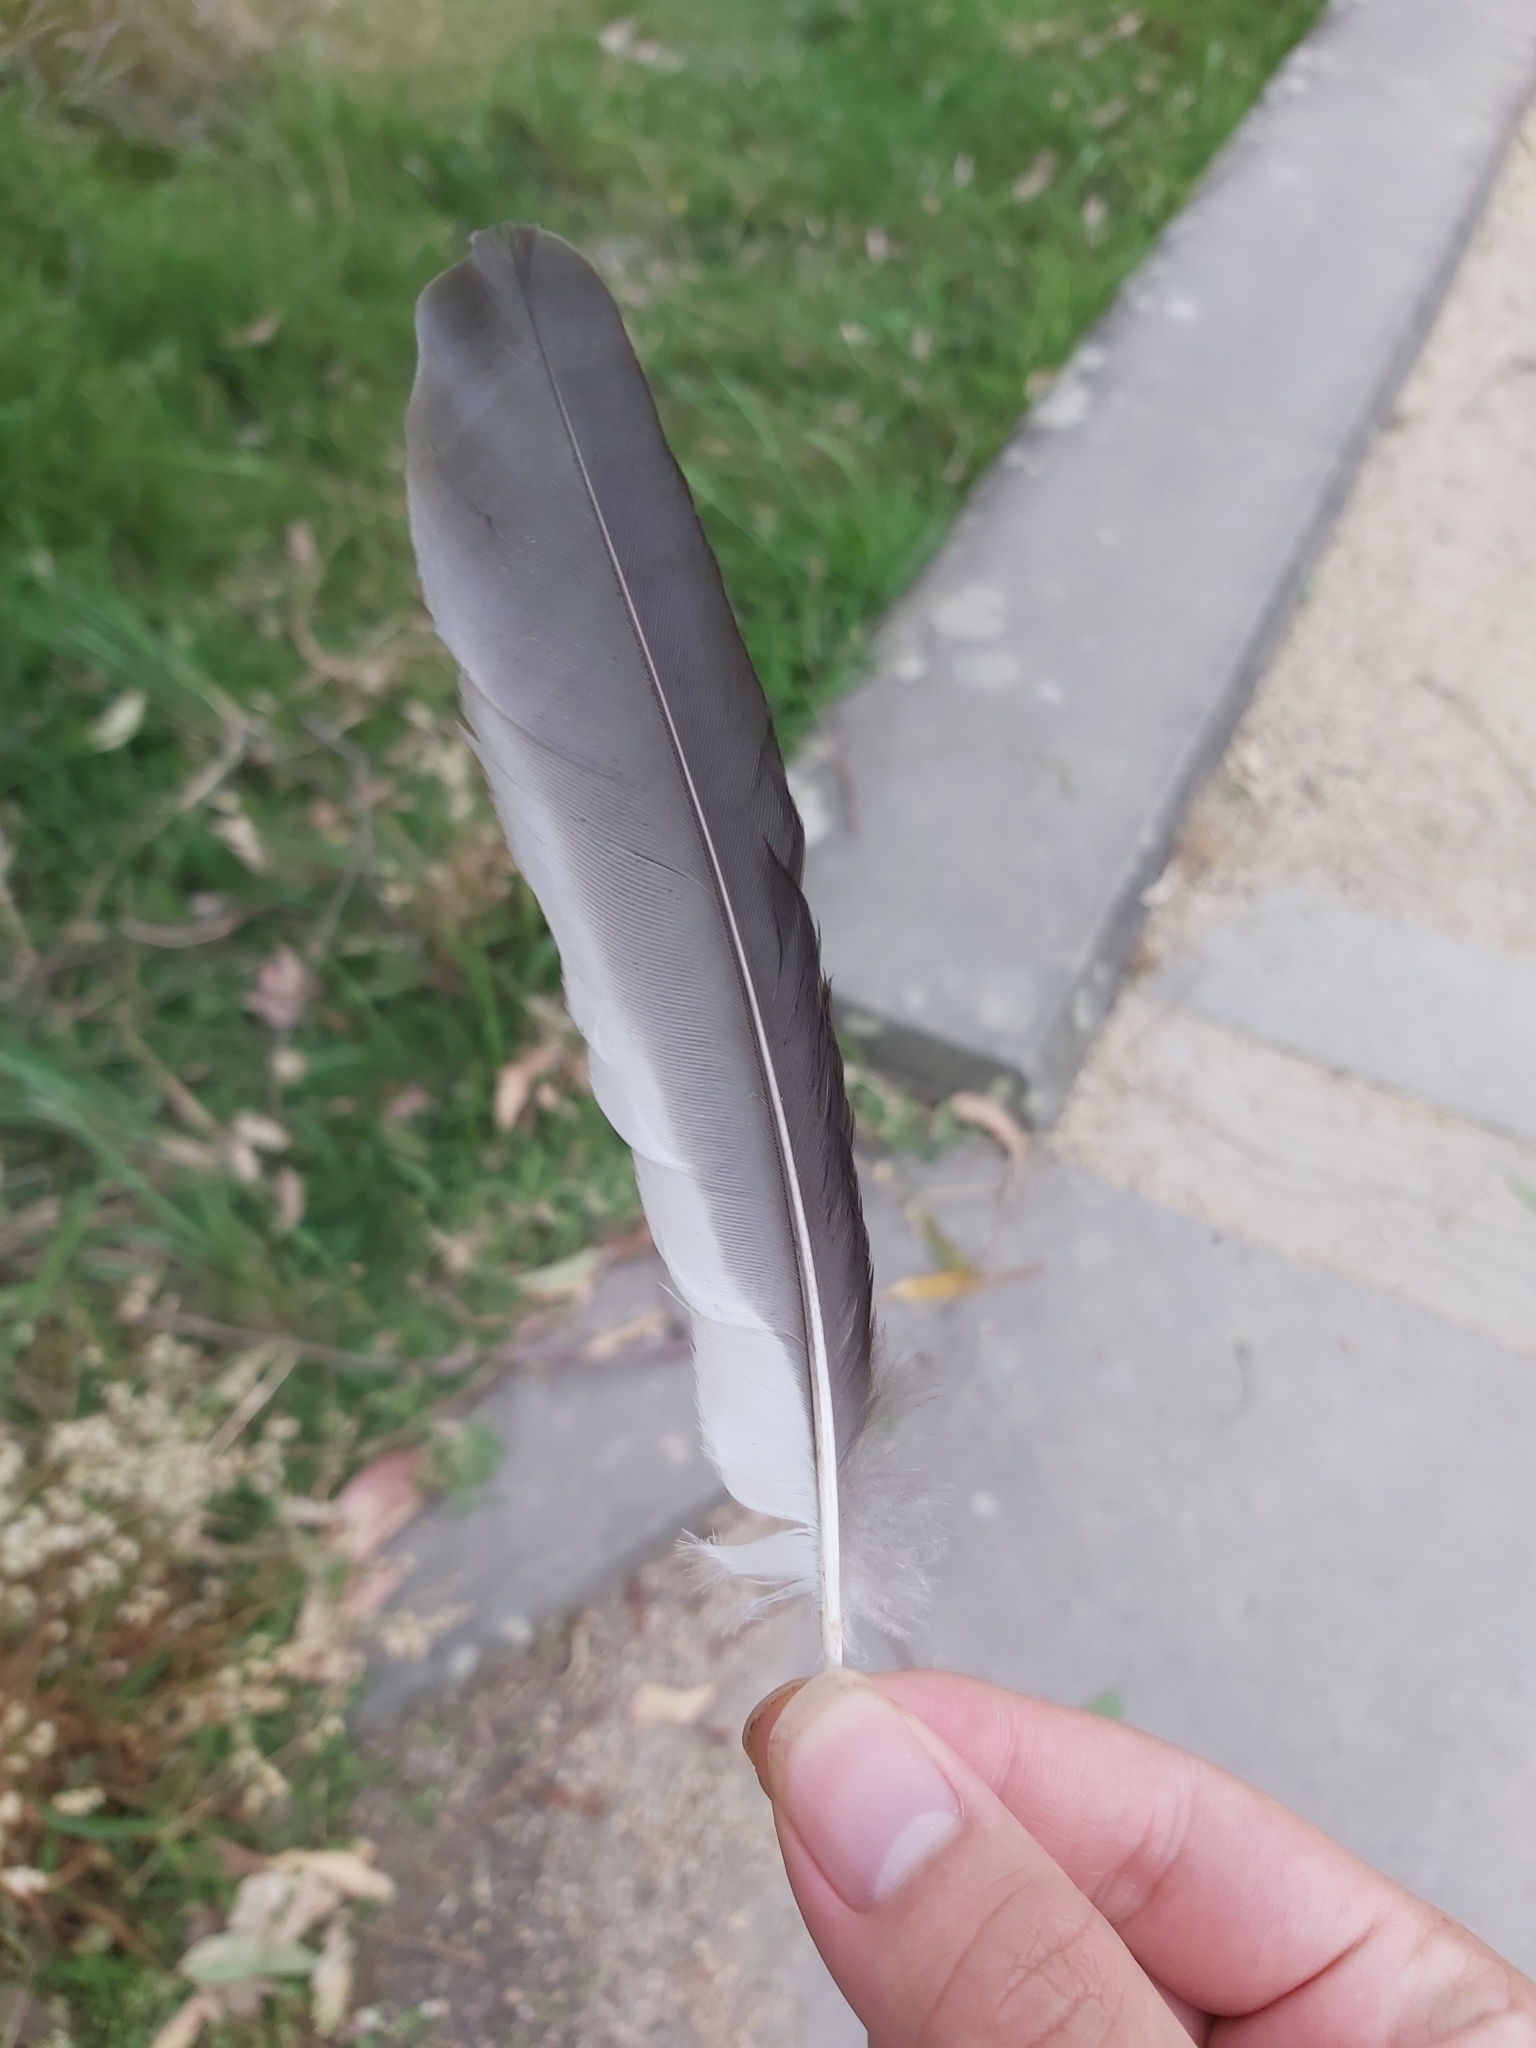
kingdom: Animalia
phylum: Chordata
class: Aves
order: Coraciiformes
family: Alcedinidae
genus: Dacelo
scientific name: Dacelo novaeguineae
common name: Laughing kookaburra
